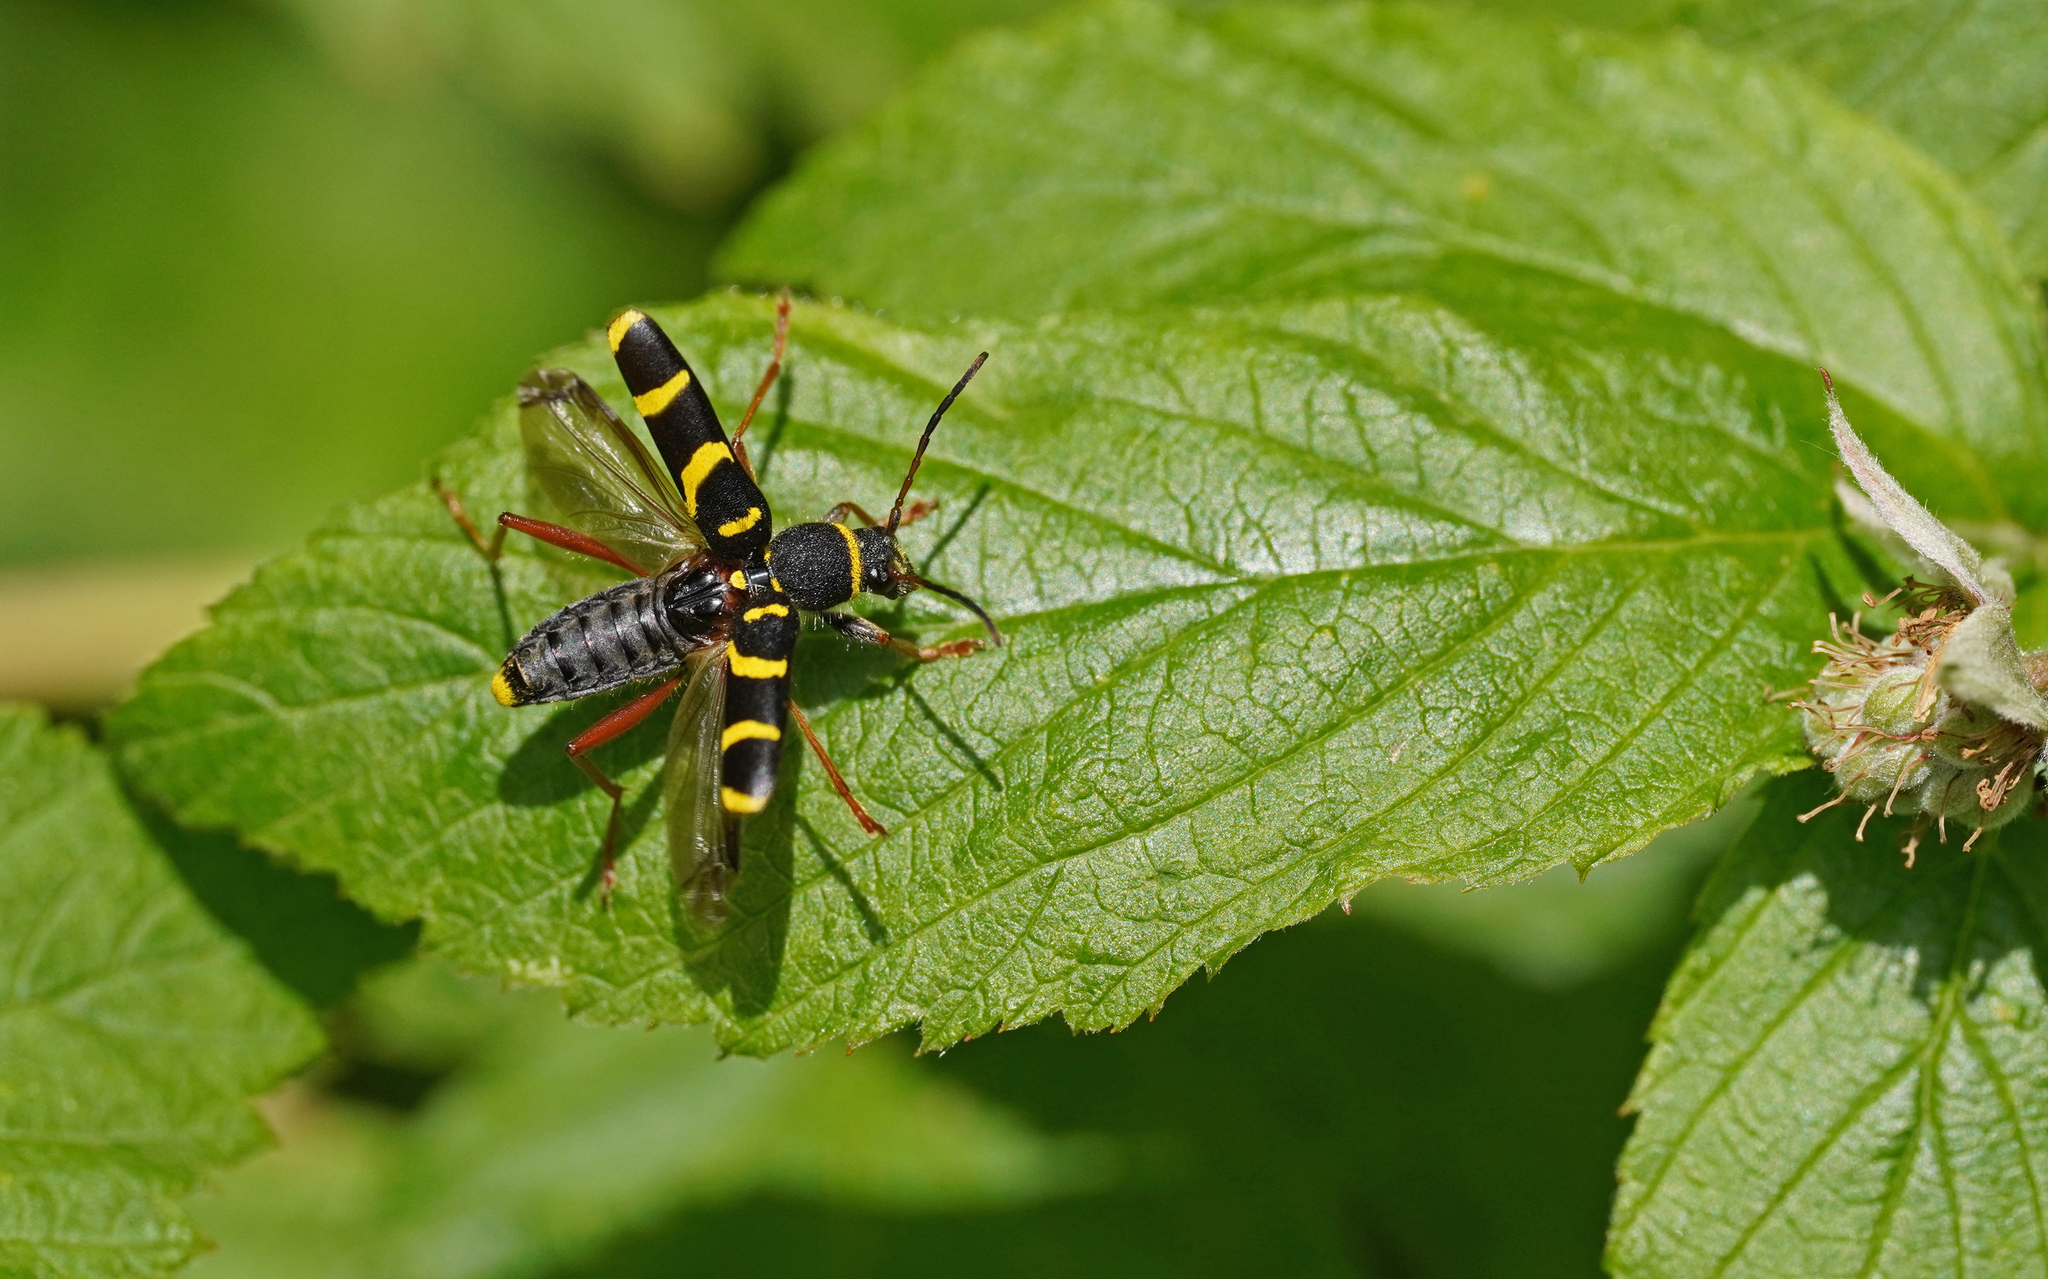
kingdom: Animalia
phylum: Arthropoda
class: Insecta
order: Coleoptera
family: Cerambycidae
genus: Clytus
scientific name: Clytus arietis
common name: Wasp beetle
